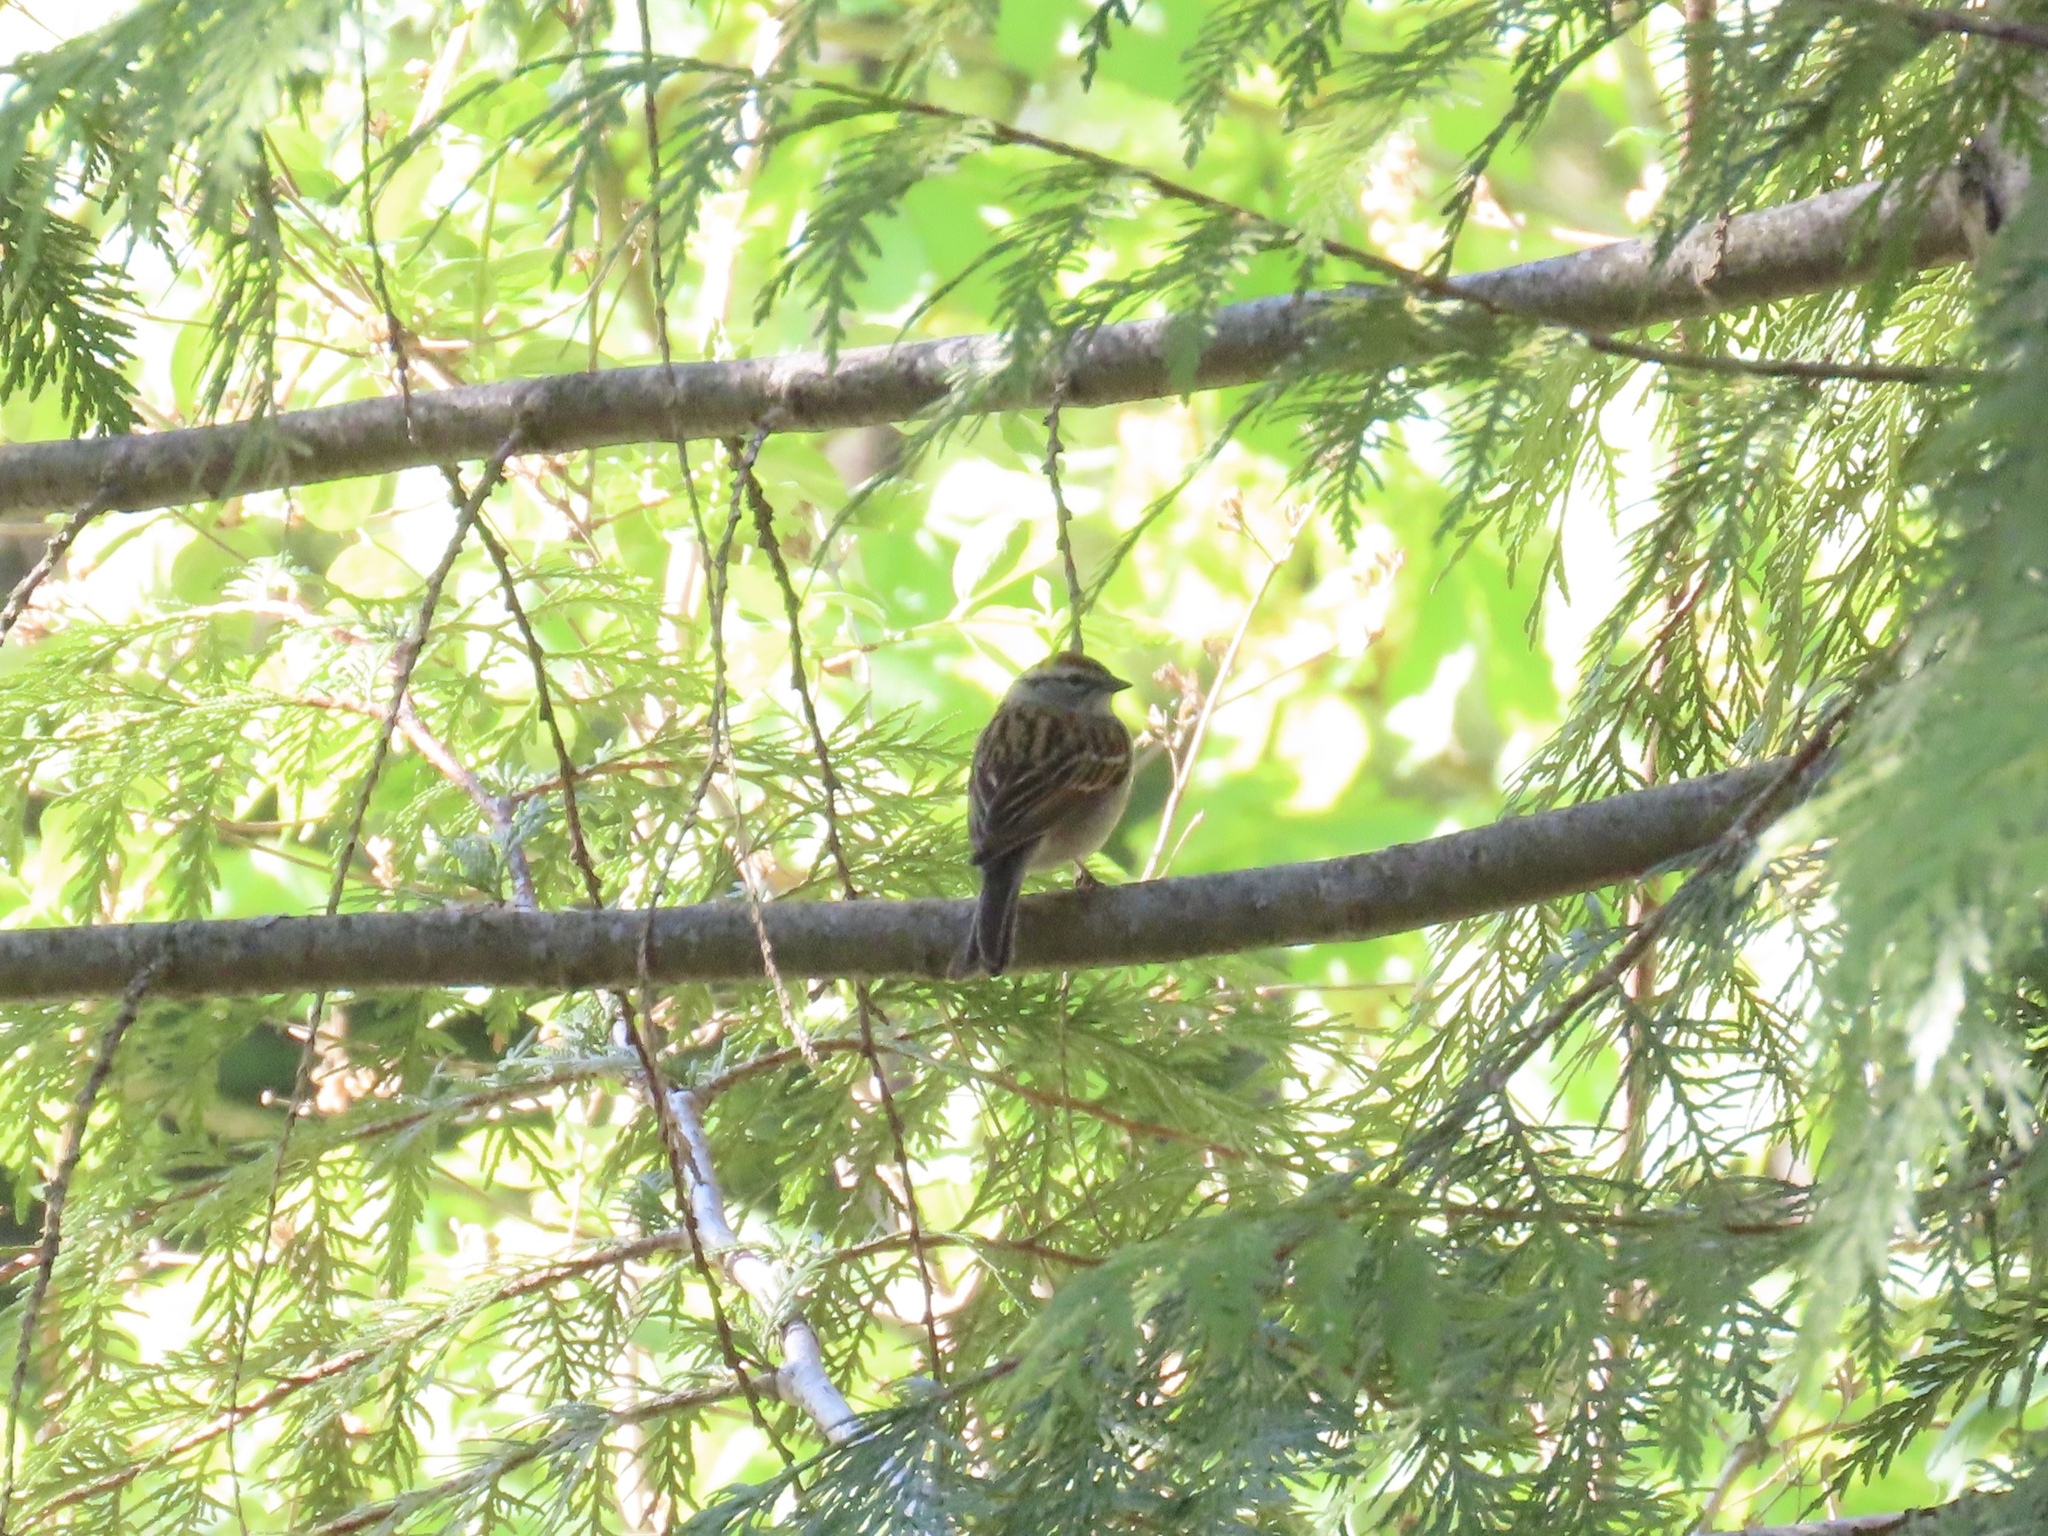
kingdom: Animalia
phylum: Chordata
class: Aves
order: Passeriformes
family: Passerellidae
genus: Spizella
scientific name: Spizella passerina
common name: Chipping sparrow
